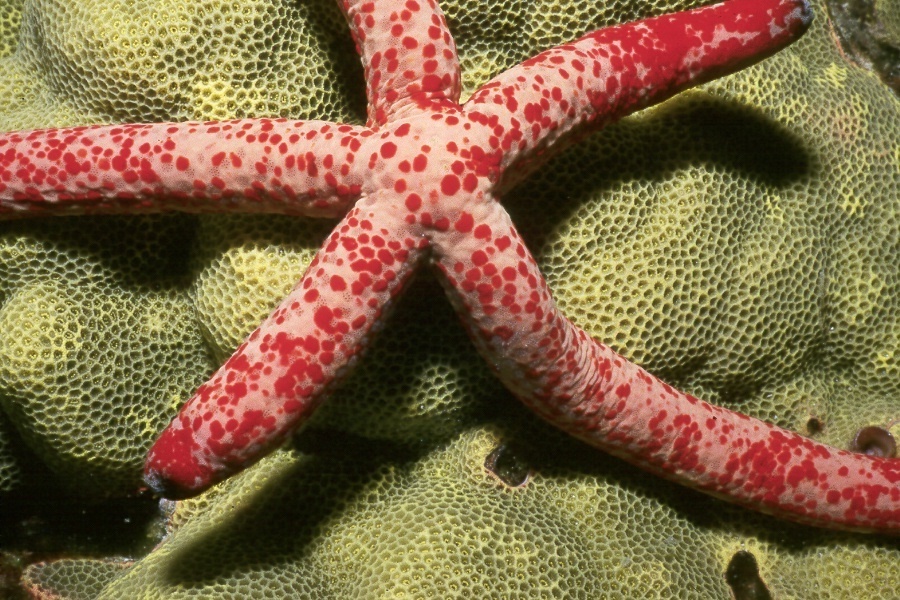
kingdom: Animalia
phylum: Echinodermata
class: Asteroidea
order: Valvatida
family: Ophidiasteridae
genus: Linckia
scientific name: Linckia multifora
